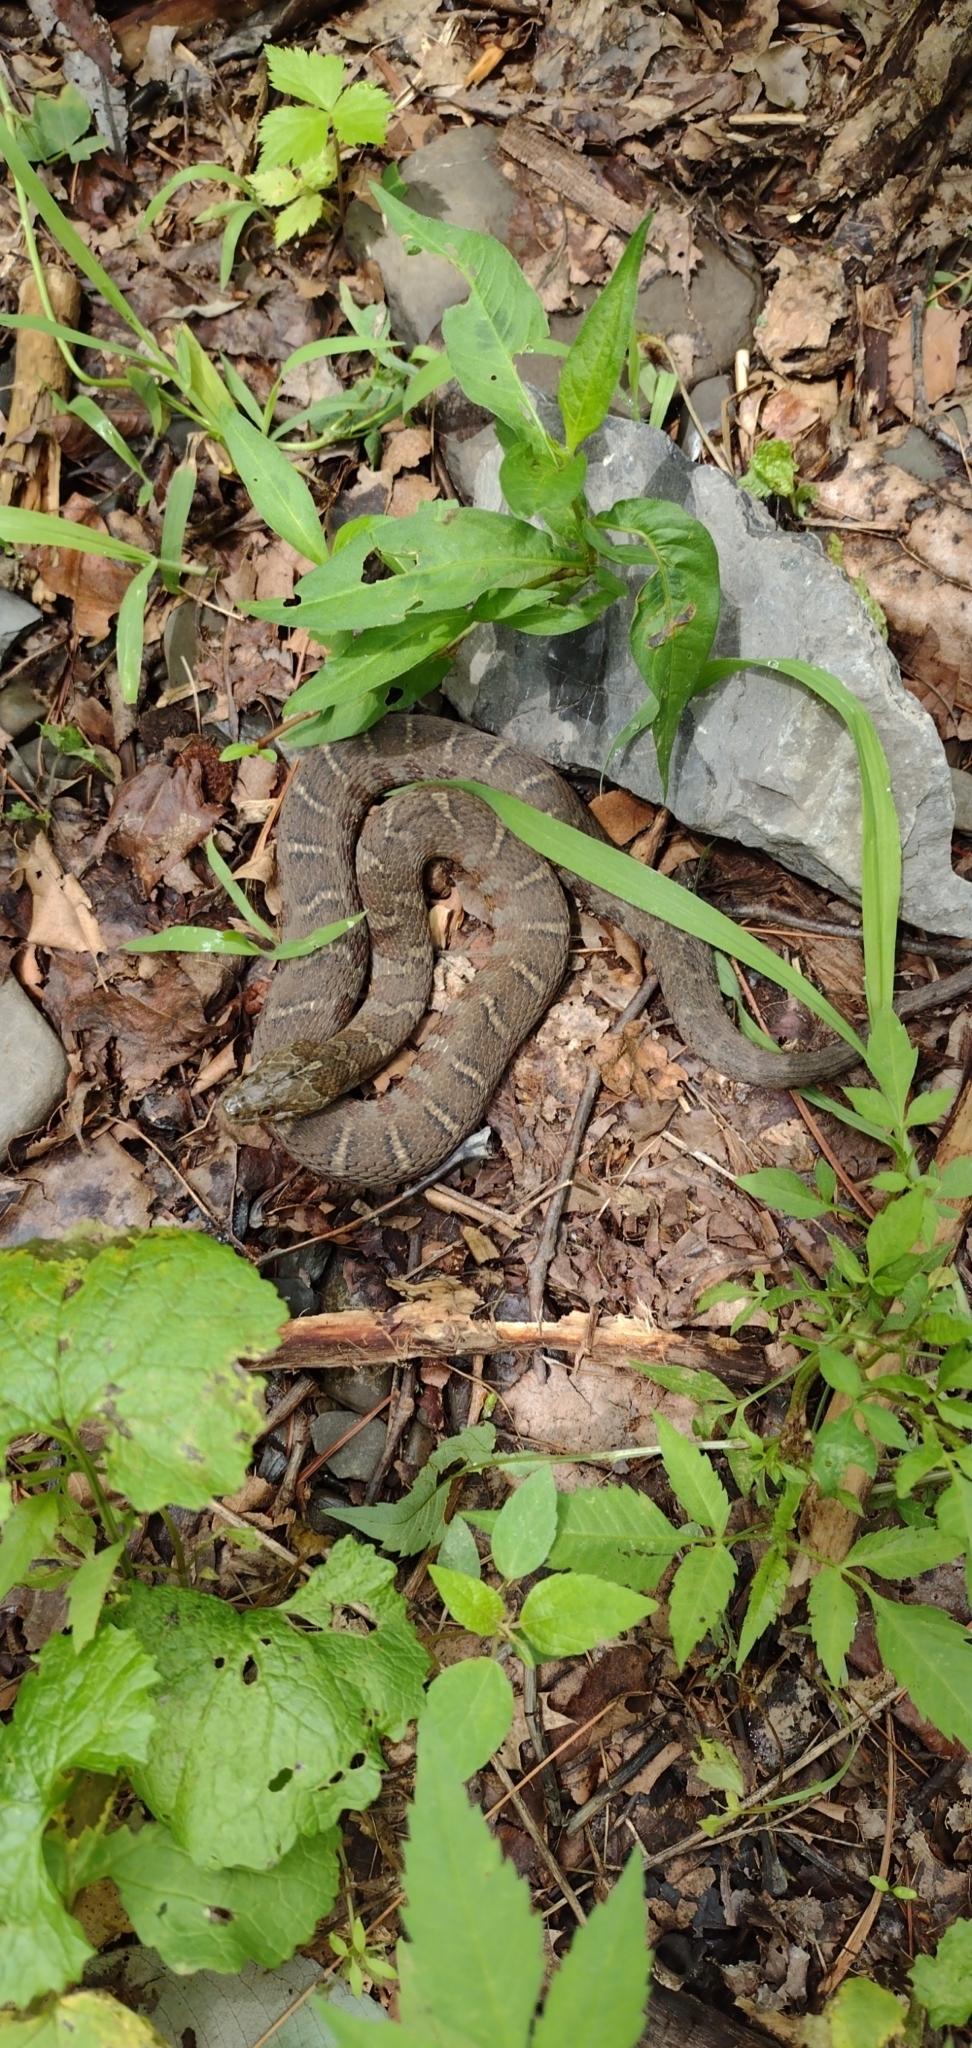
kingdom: Animalia
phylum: Chordata
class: Squamata
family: Colubridae
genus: Nerodia
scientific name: Nerodia sipedon
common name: Northern water snake
